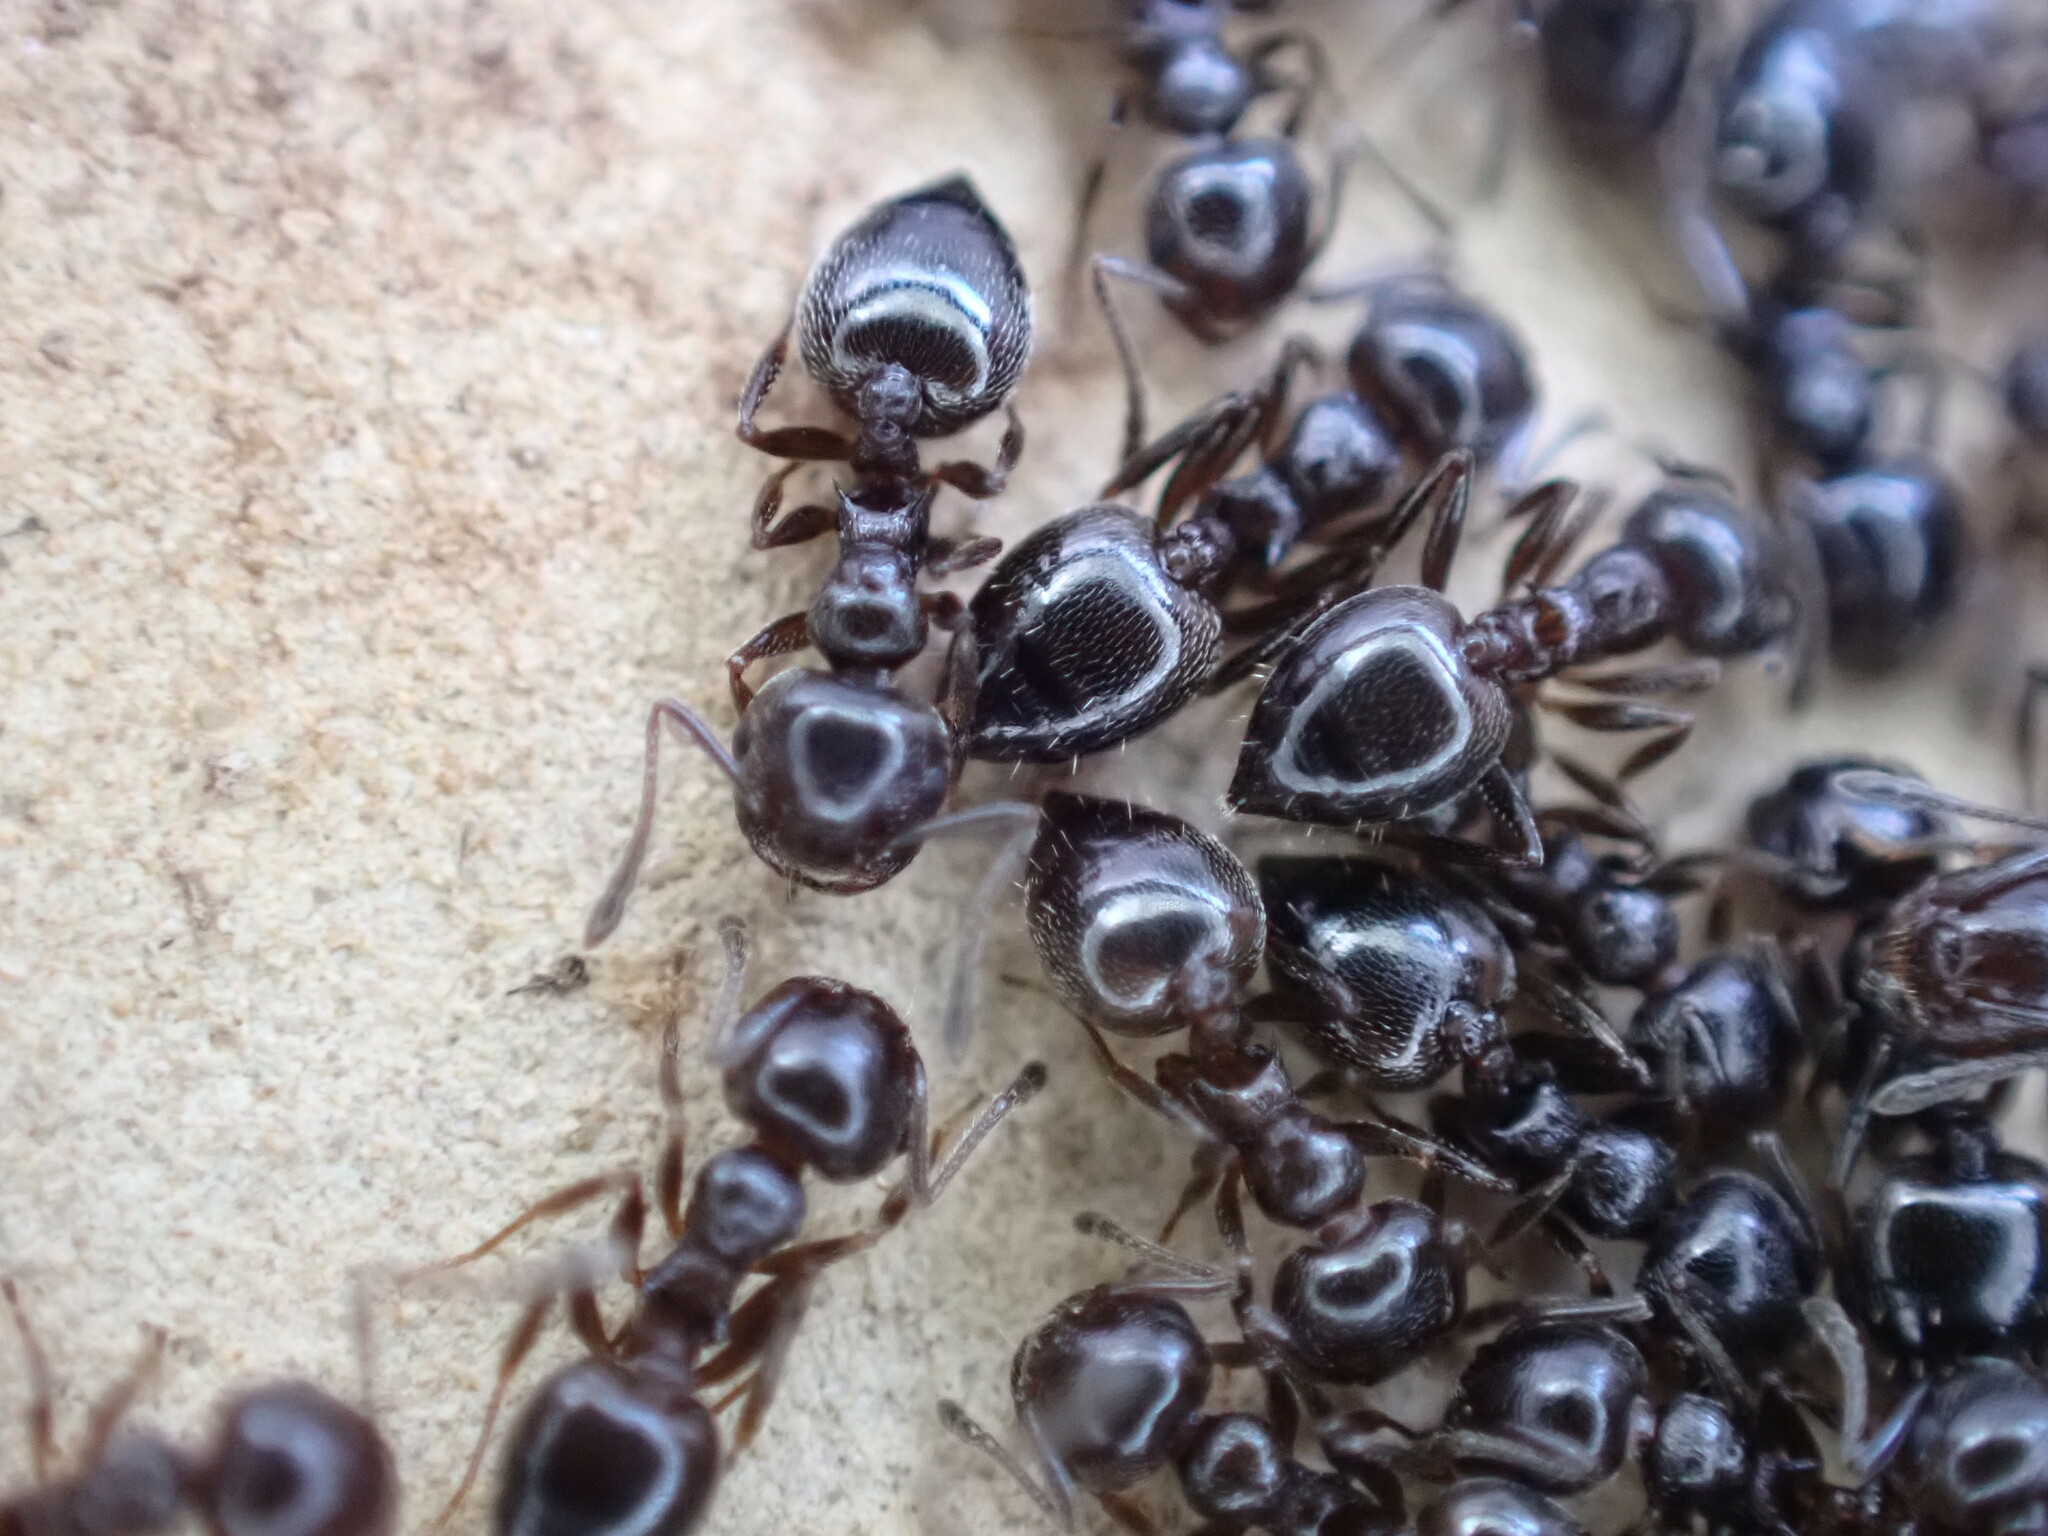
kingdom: Animalia
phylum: Arthropoda
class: Insecta
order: Hymenoptera
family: Formicidae
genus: Crematogaster
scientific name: Crematogaster auberti
